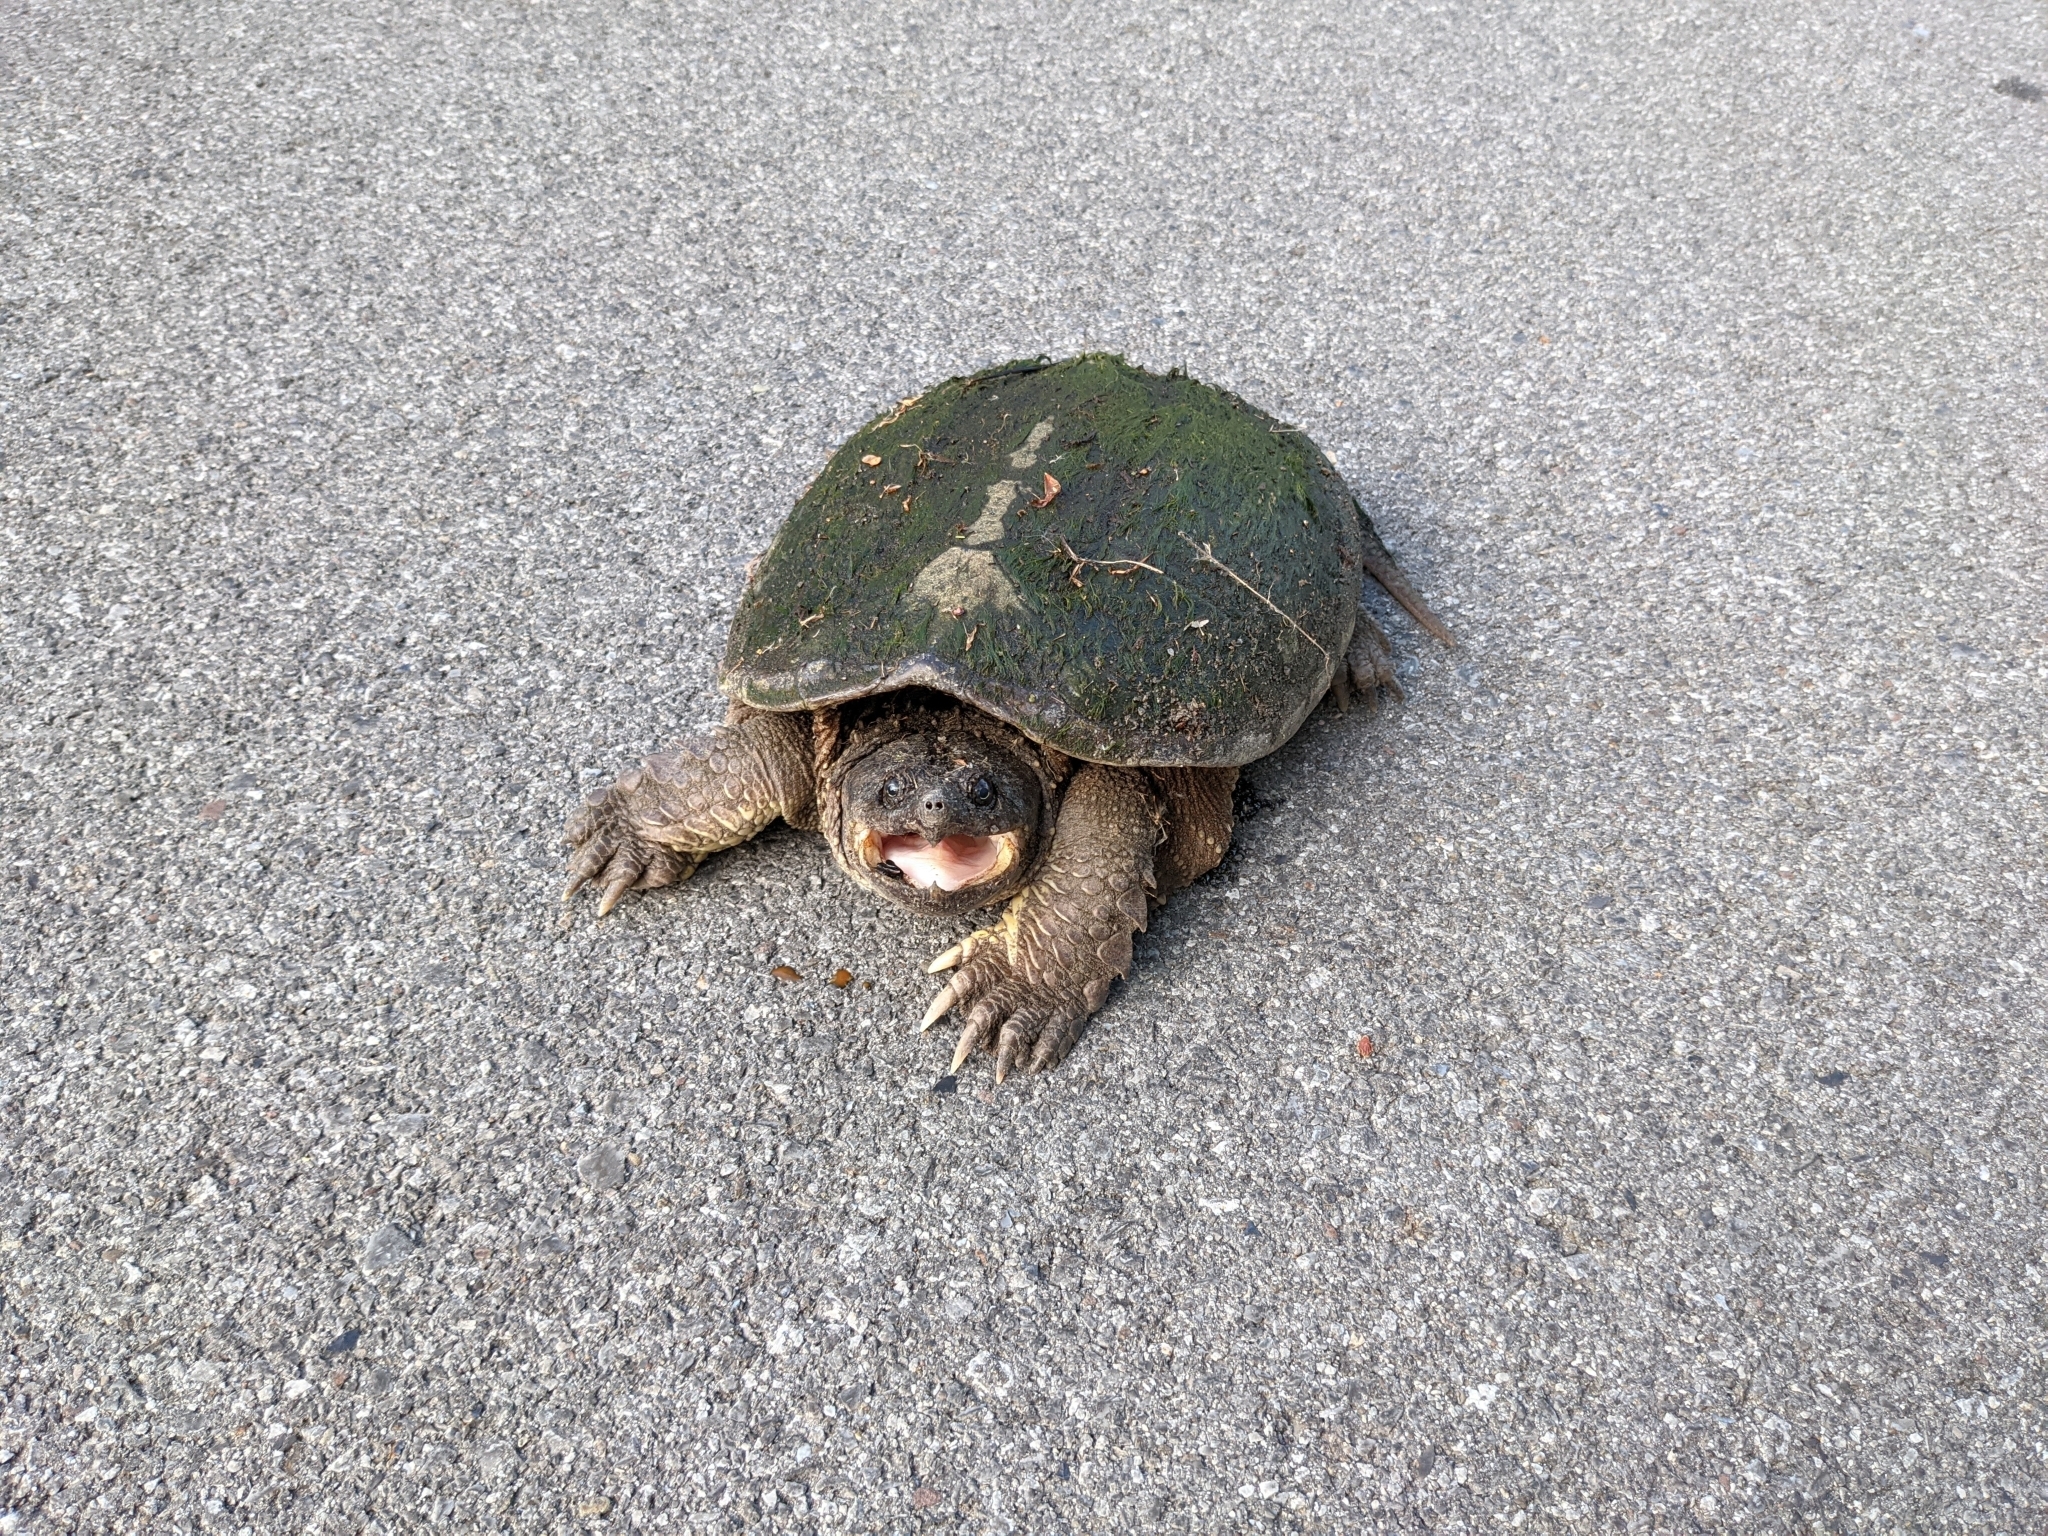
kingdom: Animalia
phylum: Chordata
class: Testudines
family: Chelydridae
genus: Chelydra
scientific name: Chelydra serpentina
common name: Common snapping turtle
